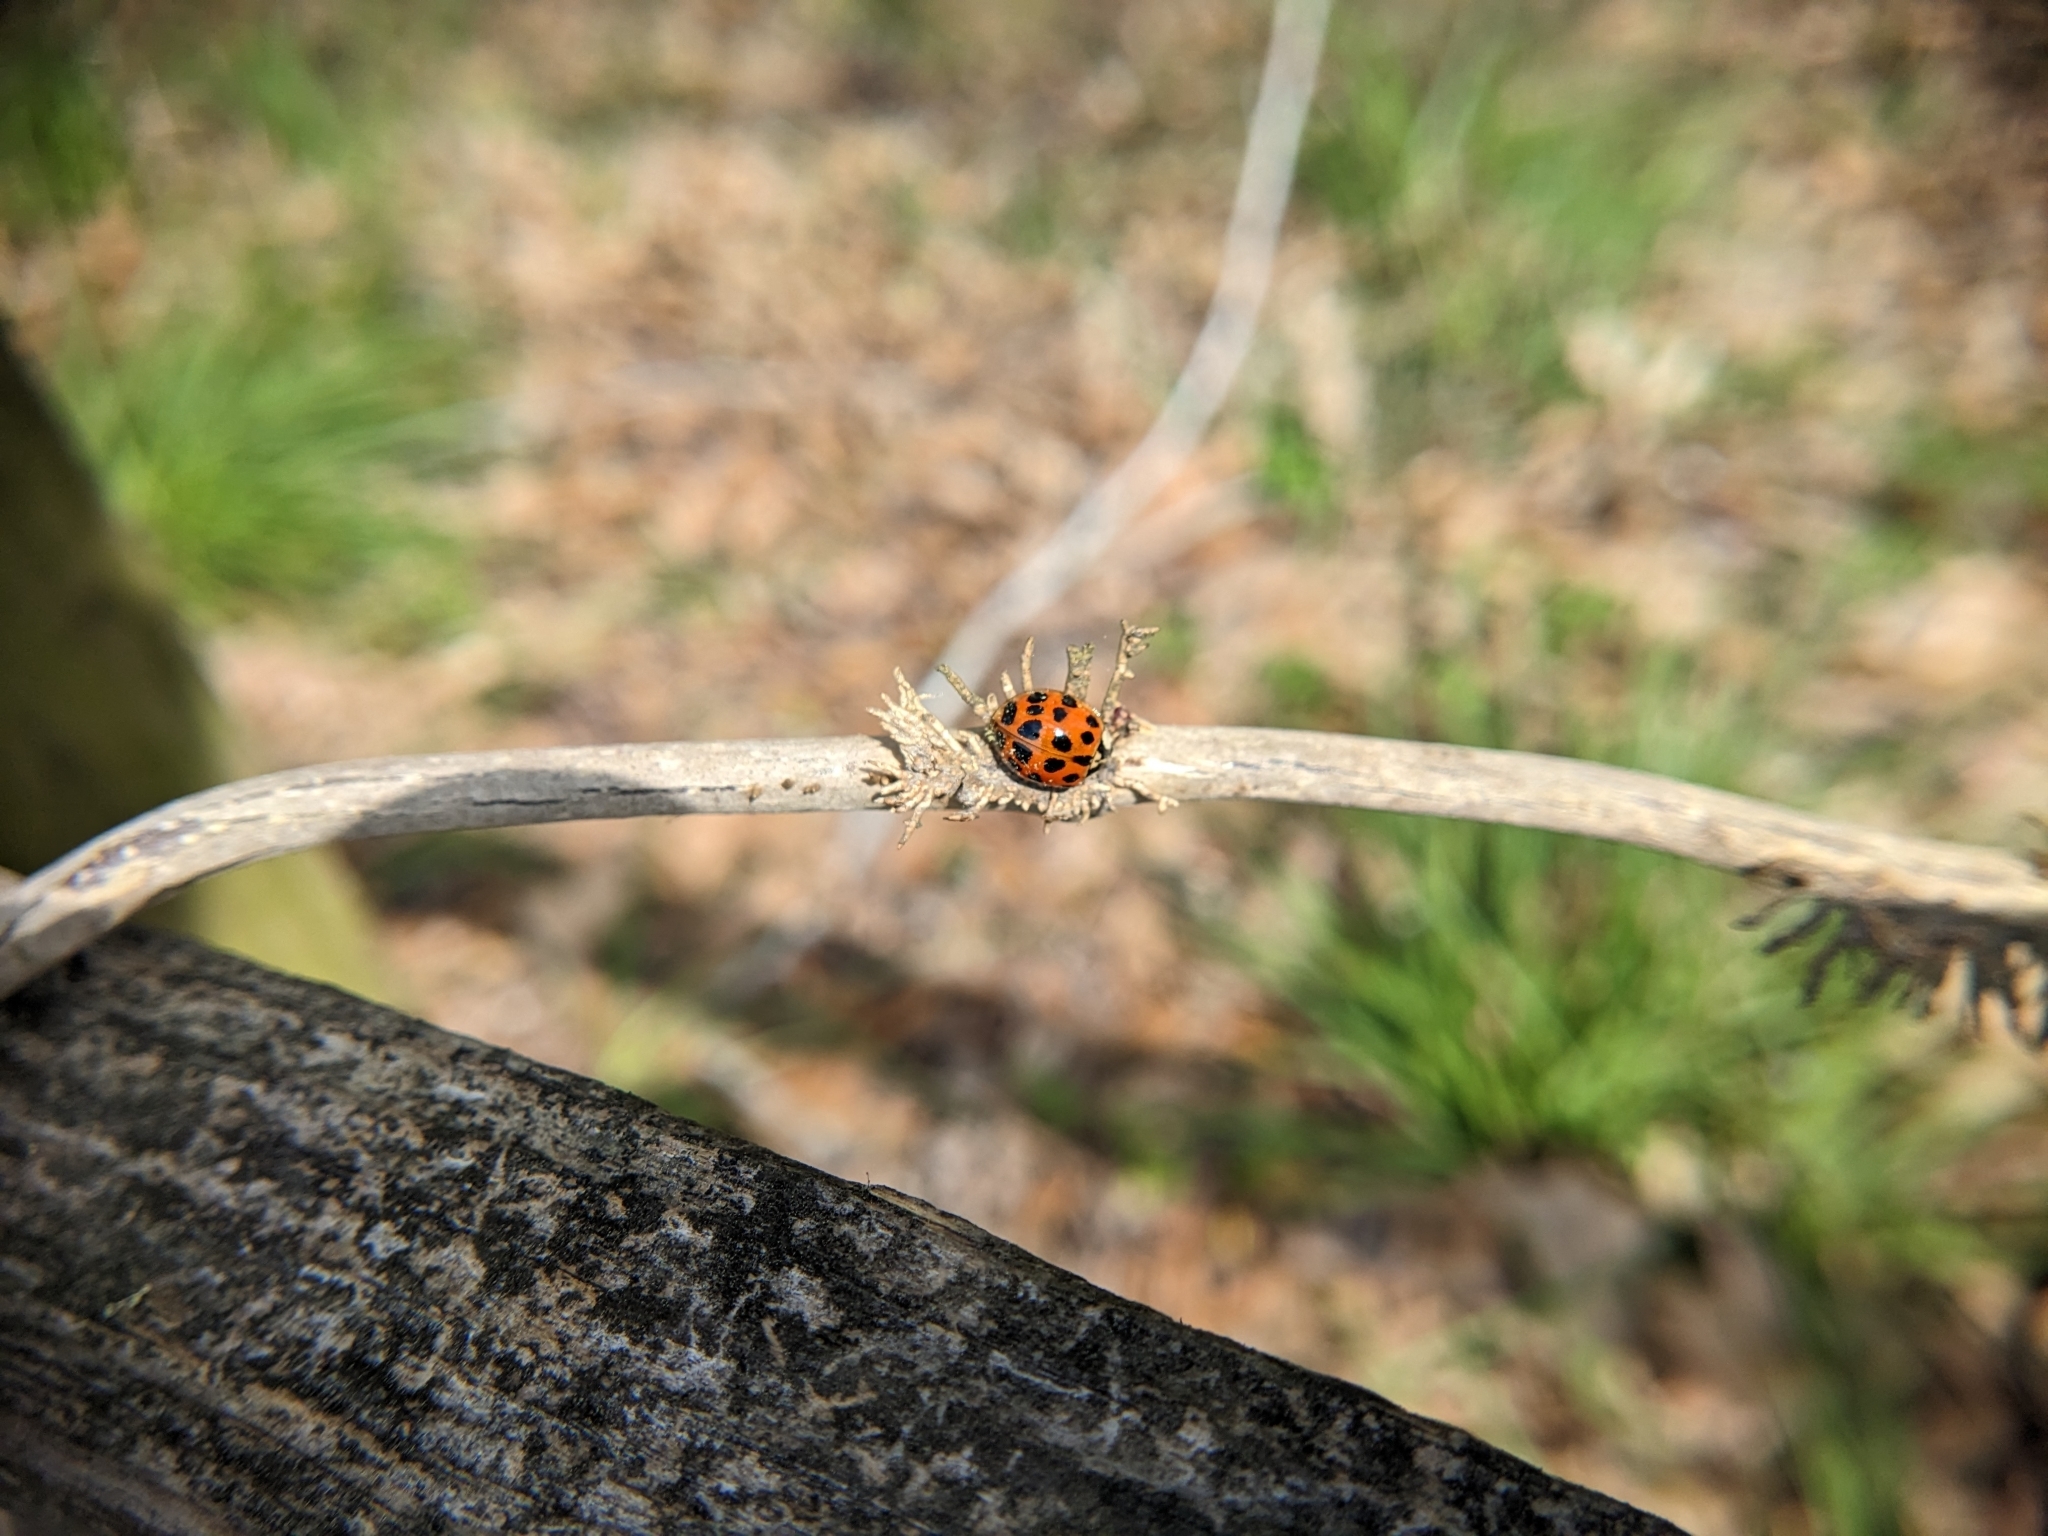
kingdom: Animalia
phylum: Arthropoda
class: Insecta
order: Coleoptera
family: Coccinellidae
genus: Harmonia
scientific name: Harmonia axyridis
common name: Harlequin ladybird
